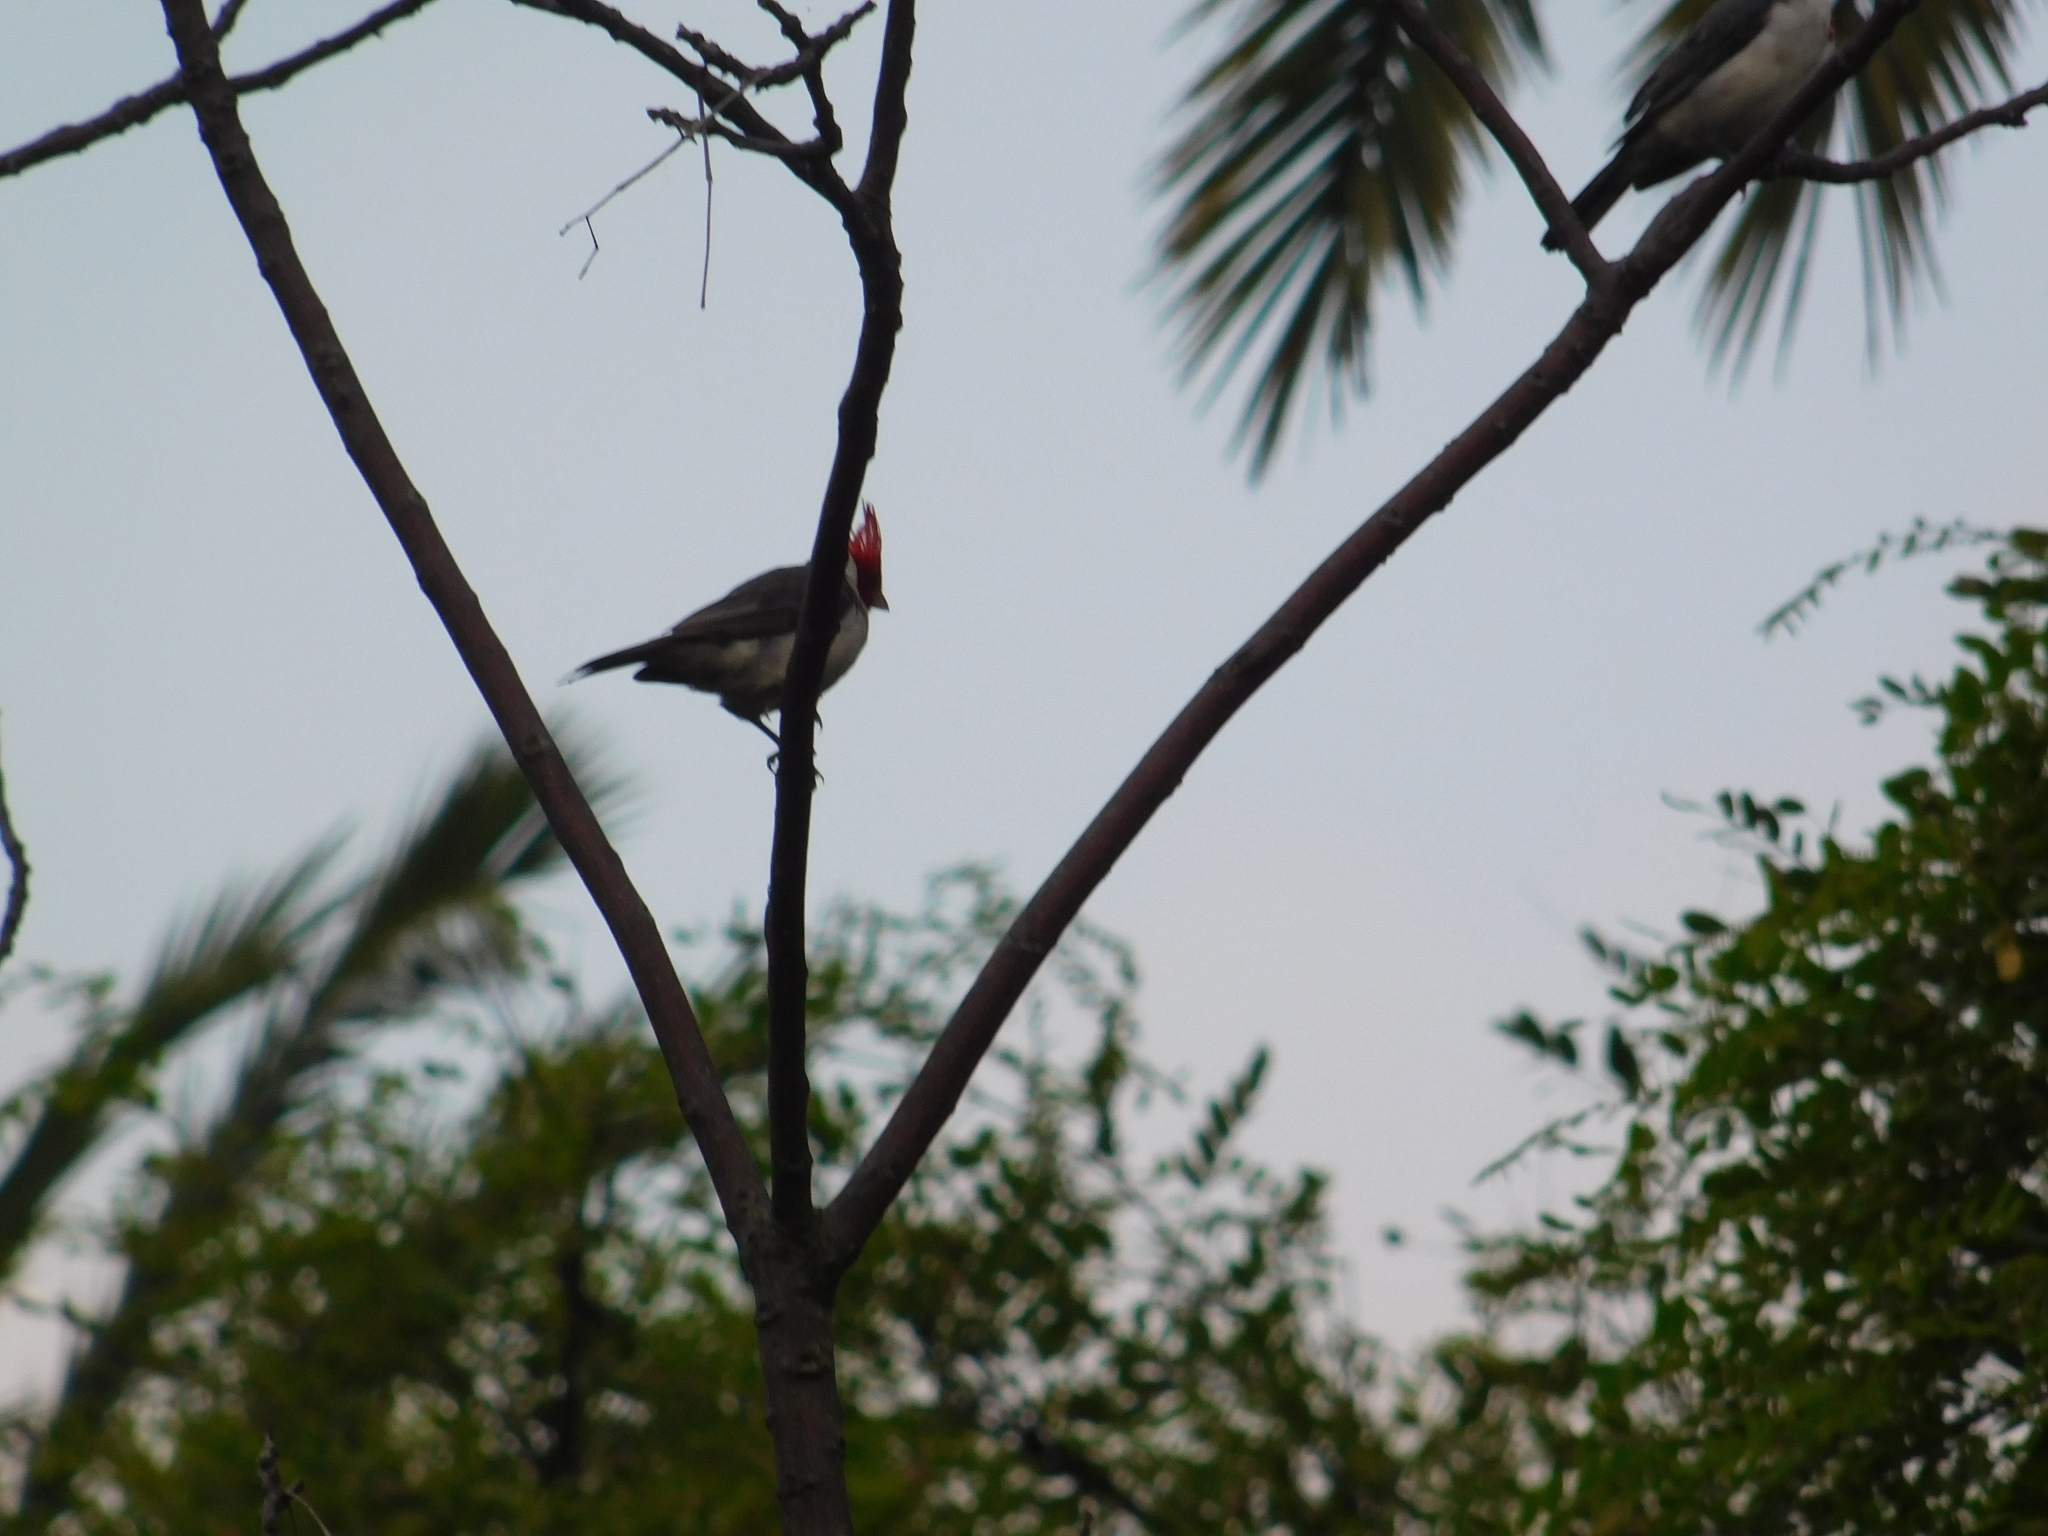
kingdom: Animalia
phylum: Chordata
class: Aves
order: Passeriformes
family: Thraupidae
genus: Paroaria
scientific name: Paroaria coronata
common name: Red-crested cardinal
